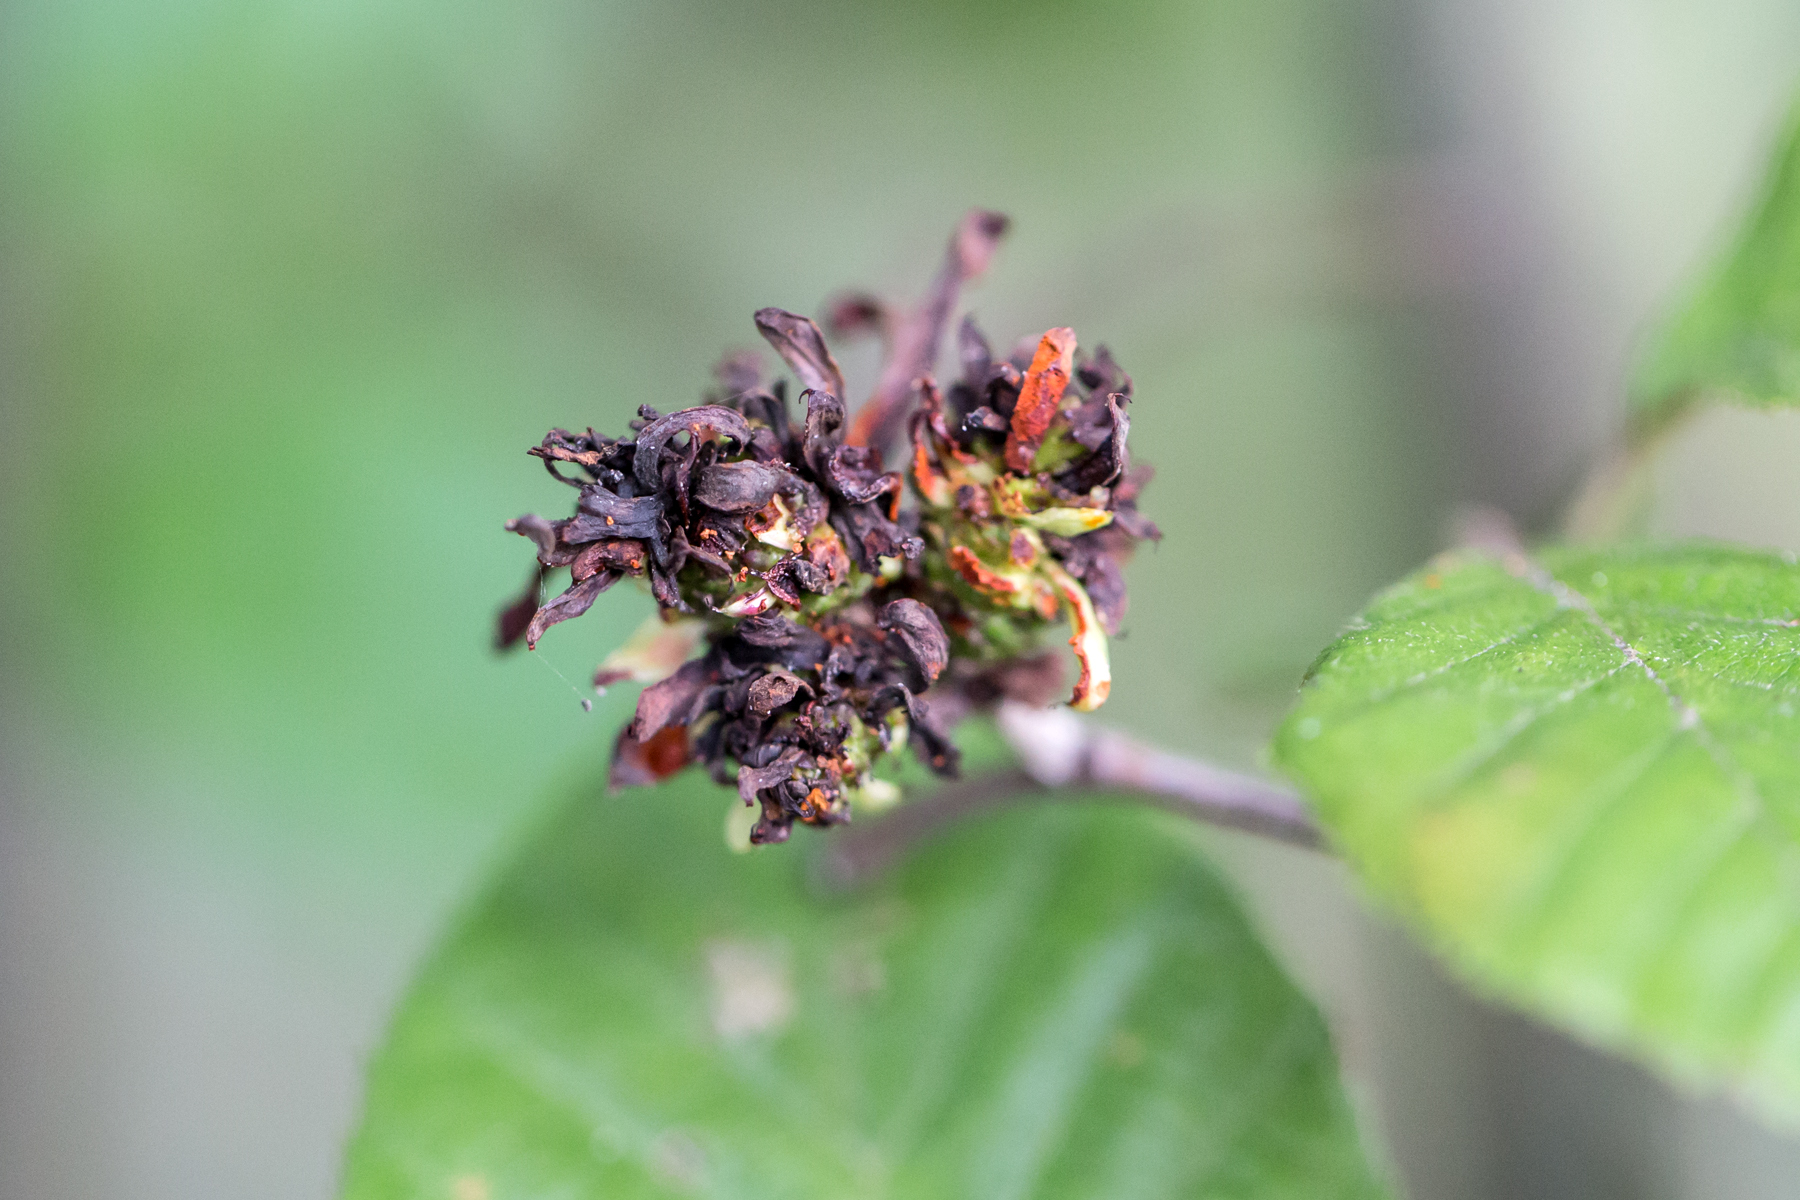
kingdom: Fungi
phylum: Ascomycota
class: Taphrinomycetes
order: Taphrinales
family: Taphrinaceae
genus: Taphrina
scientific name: Taphrina robinsoniana
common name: Eastern american alder tongue gall fungus
